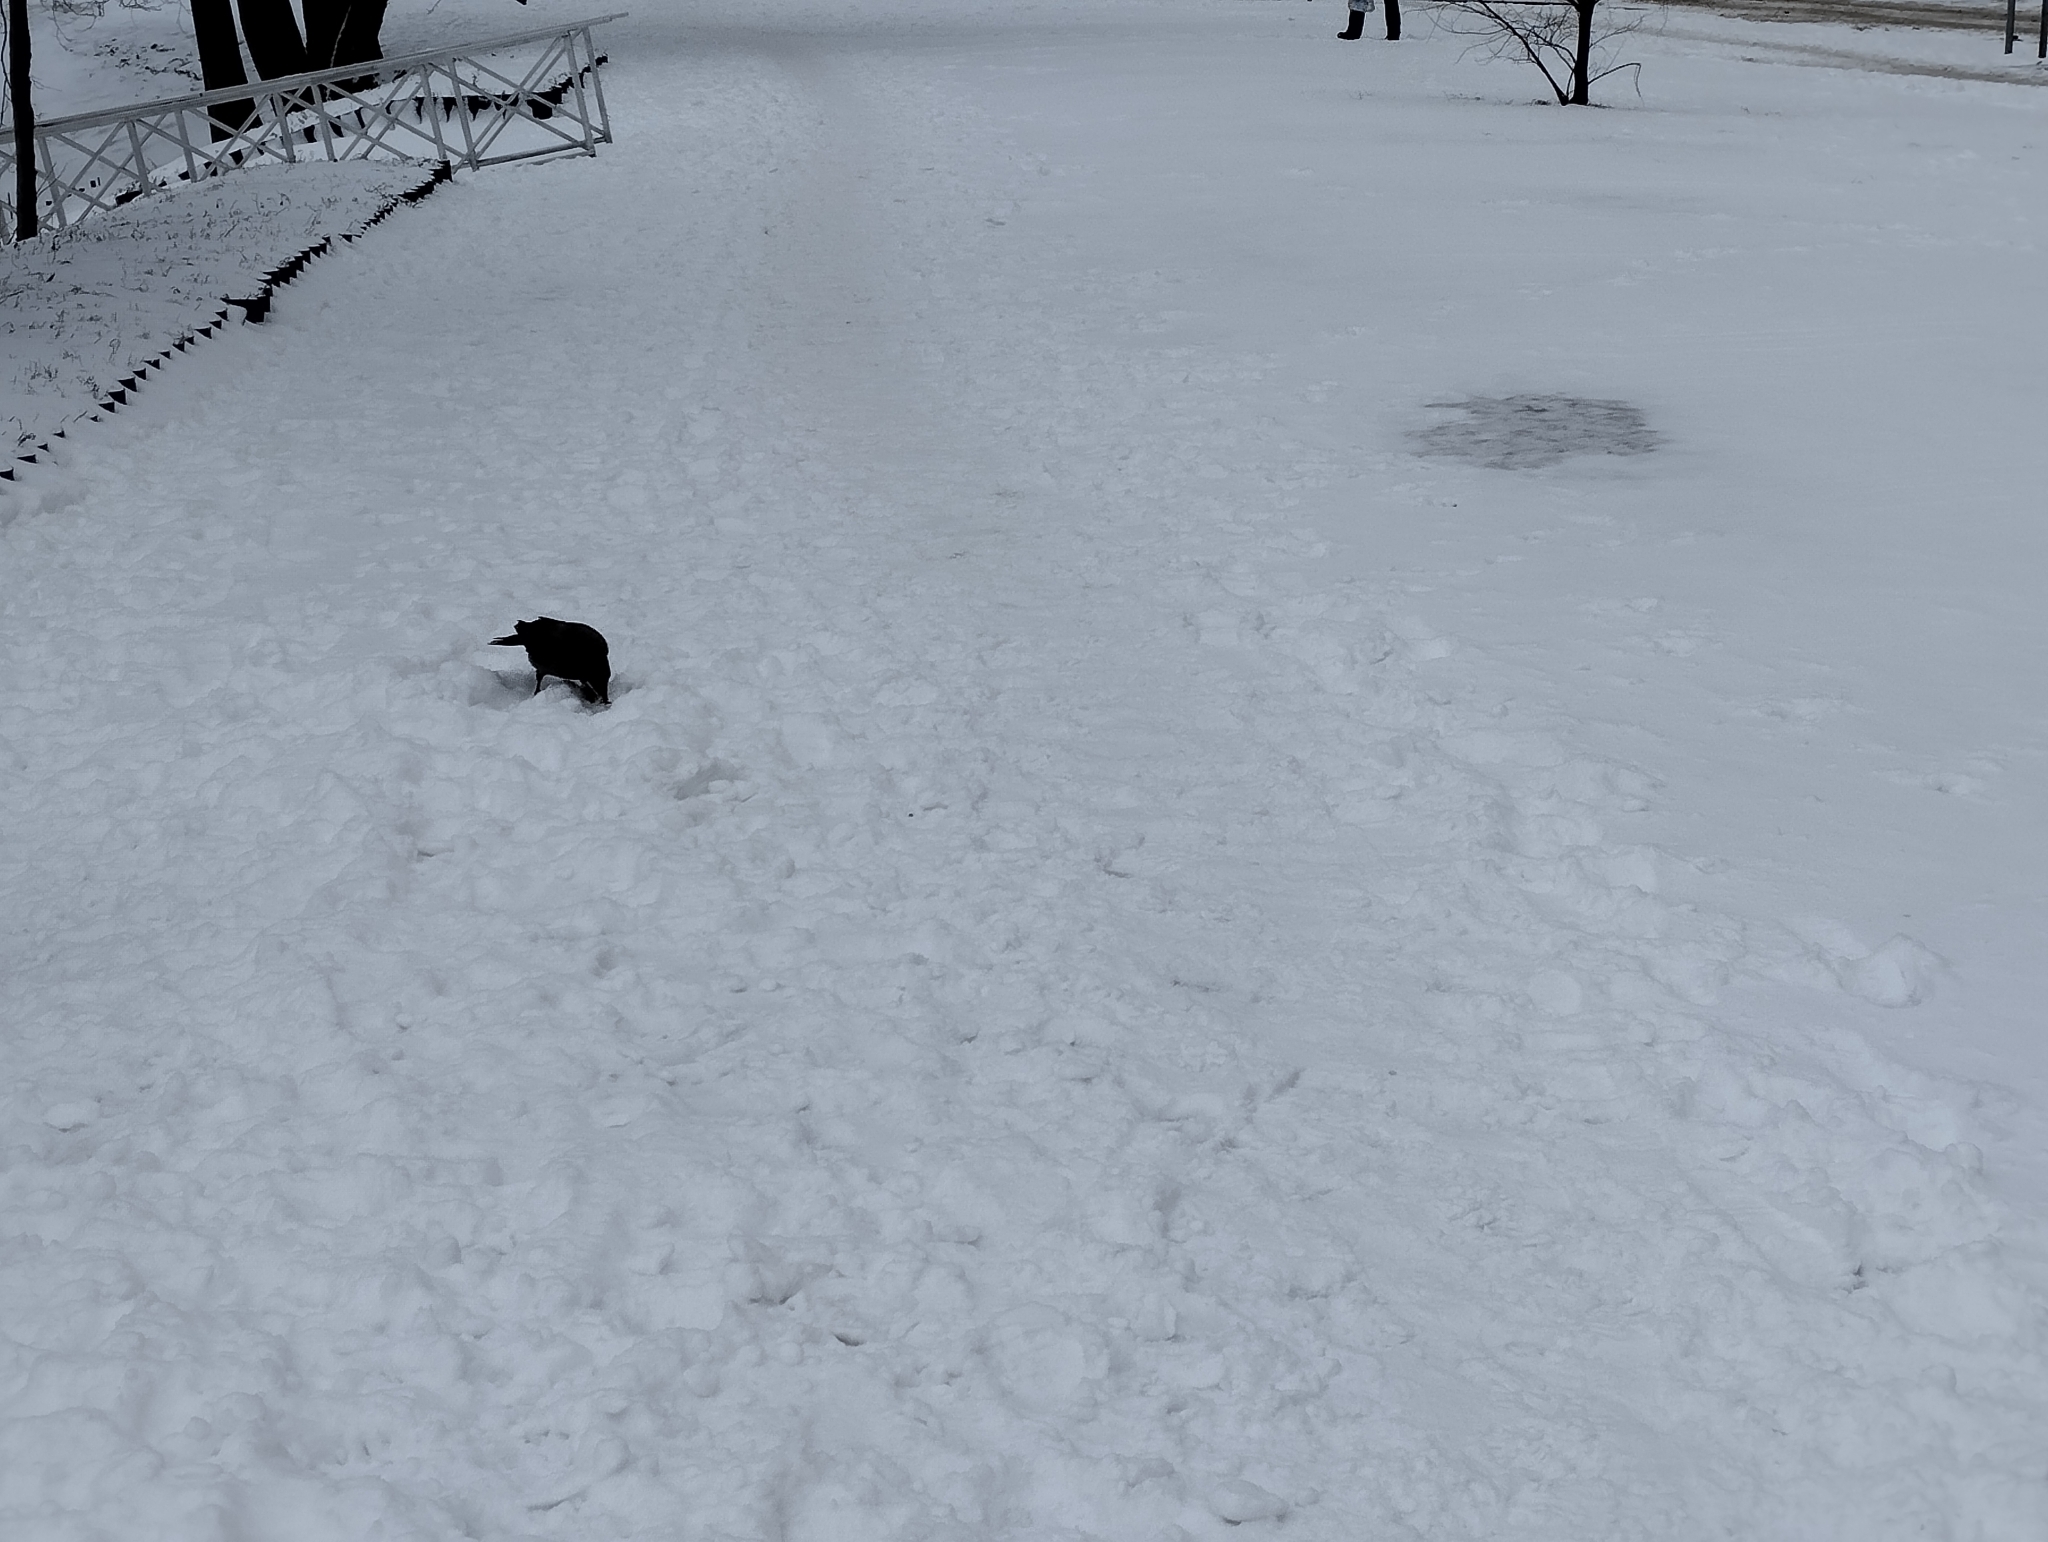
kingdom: Animalia
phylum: Chordata
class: Aves
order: Passeriformes
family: Corvidae
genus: Corvus
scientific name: Corvus cornix
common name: Hooded crow
